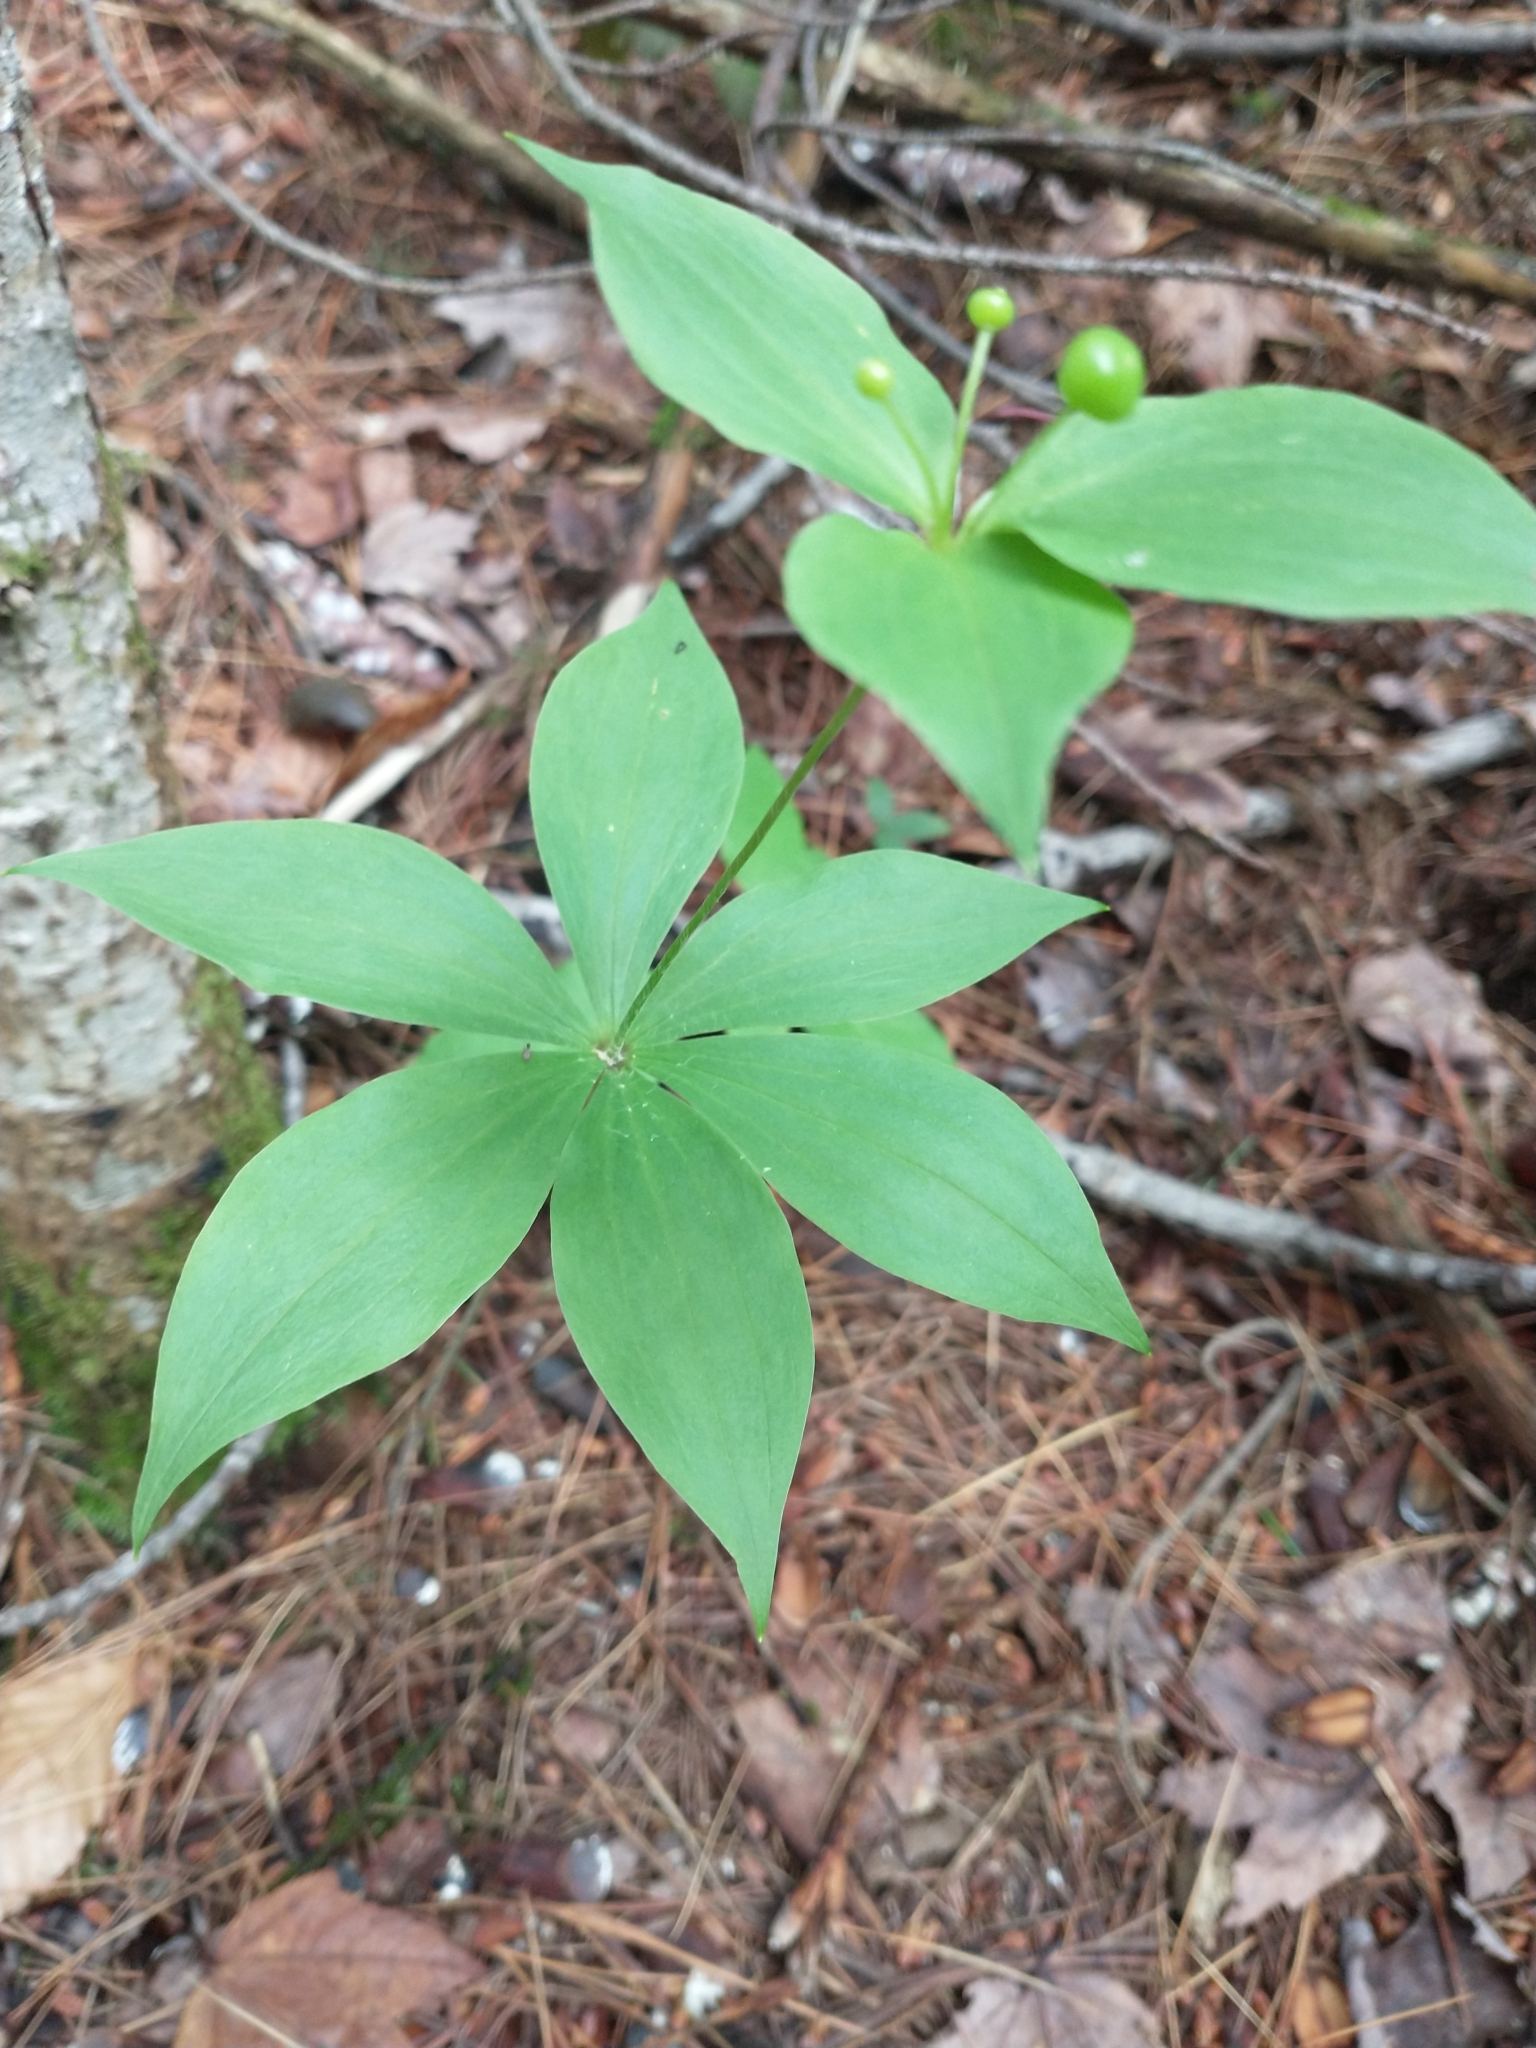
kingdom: Plantae
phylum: Tracheophyta
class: Liliopsida
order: Liliales
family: Liliaceae
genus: Medeola
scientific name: Medeola virginiana
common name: Indian cucumber-root
